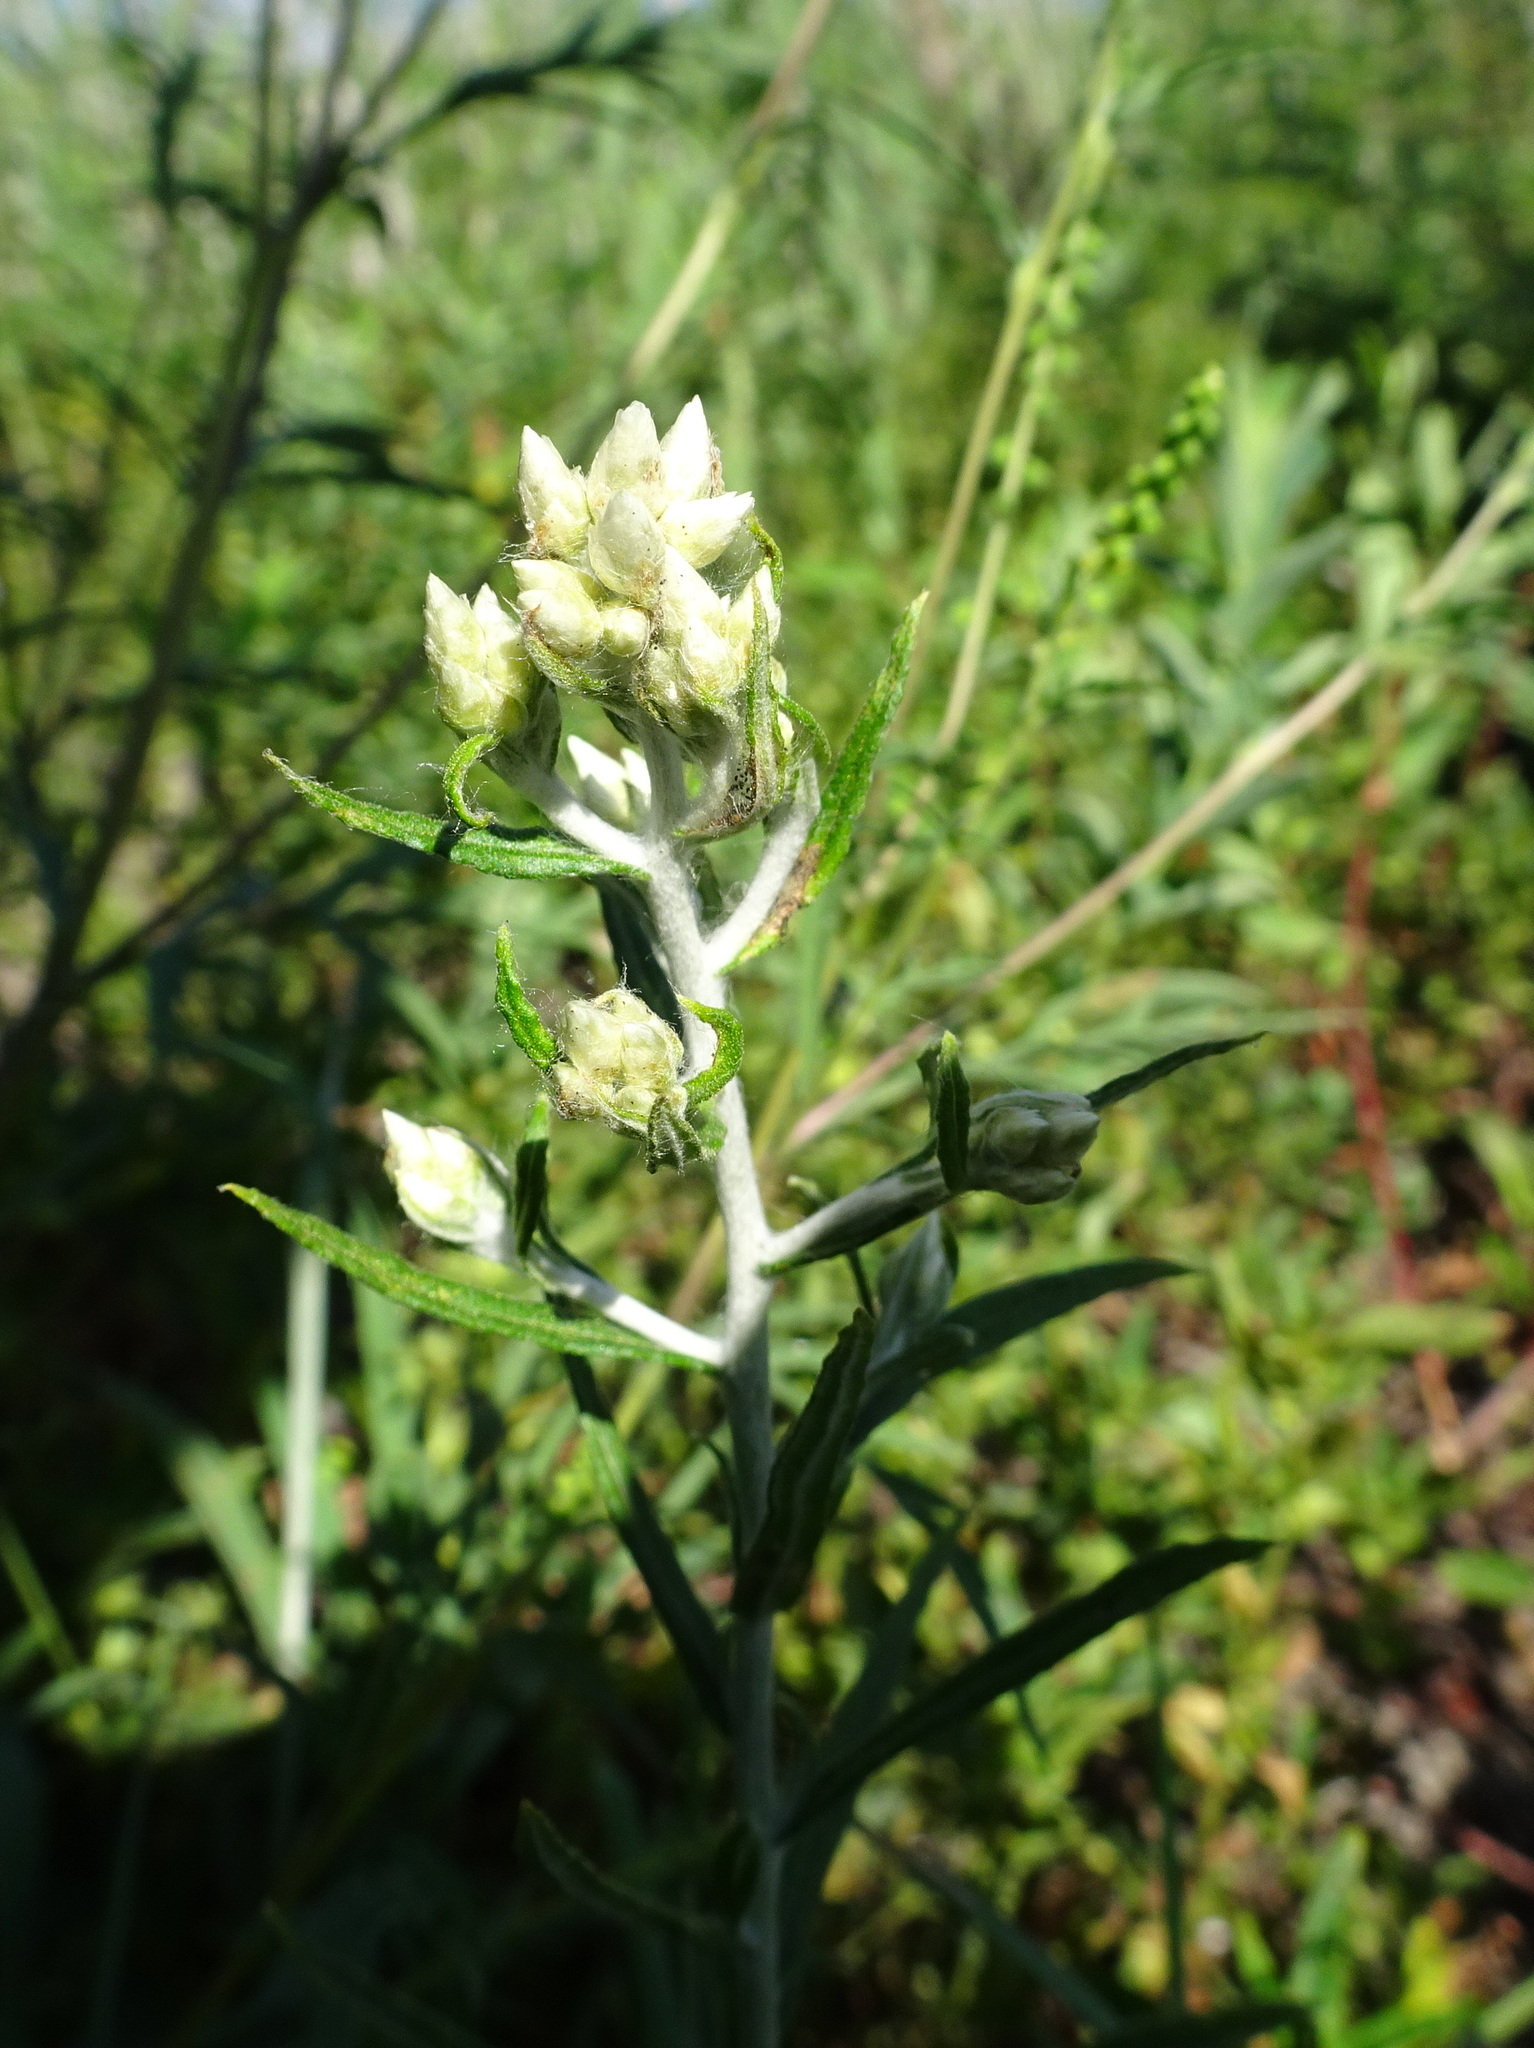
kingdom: Plantae
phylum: Tracheophyta
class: Magnoliopsida
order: Asterales
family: Asteraceae
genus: Pseudognaphalium
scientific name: Pseudognaphalium obtusifolium
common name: Eastern rabbit-tobacco
